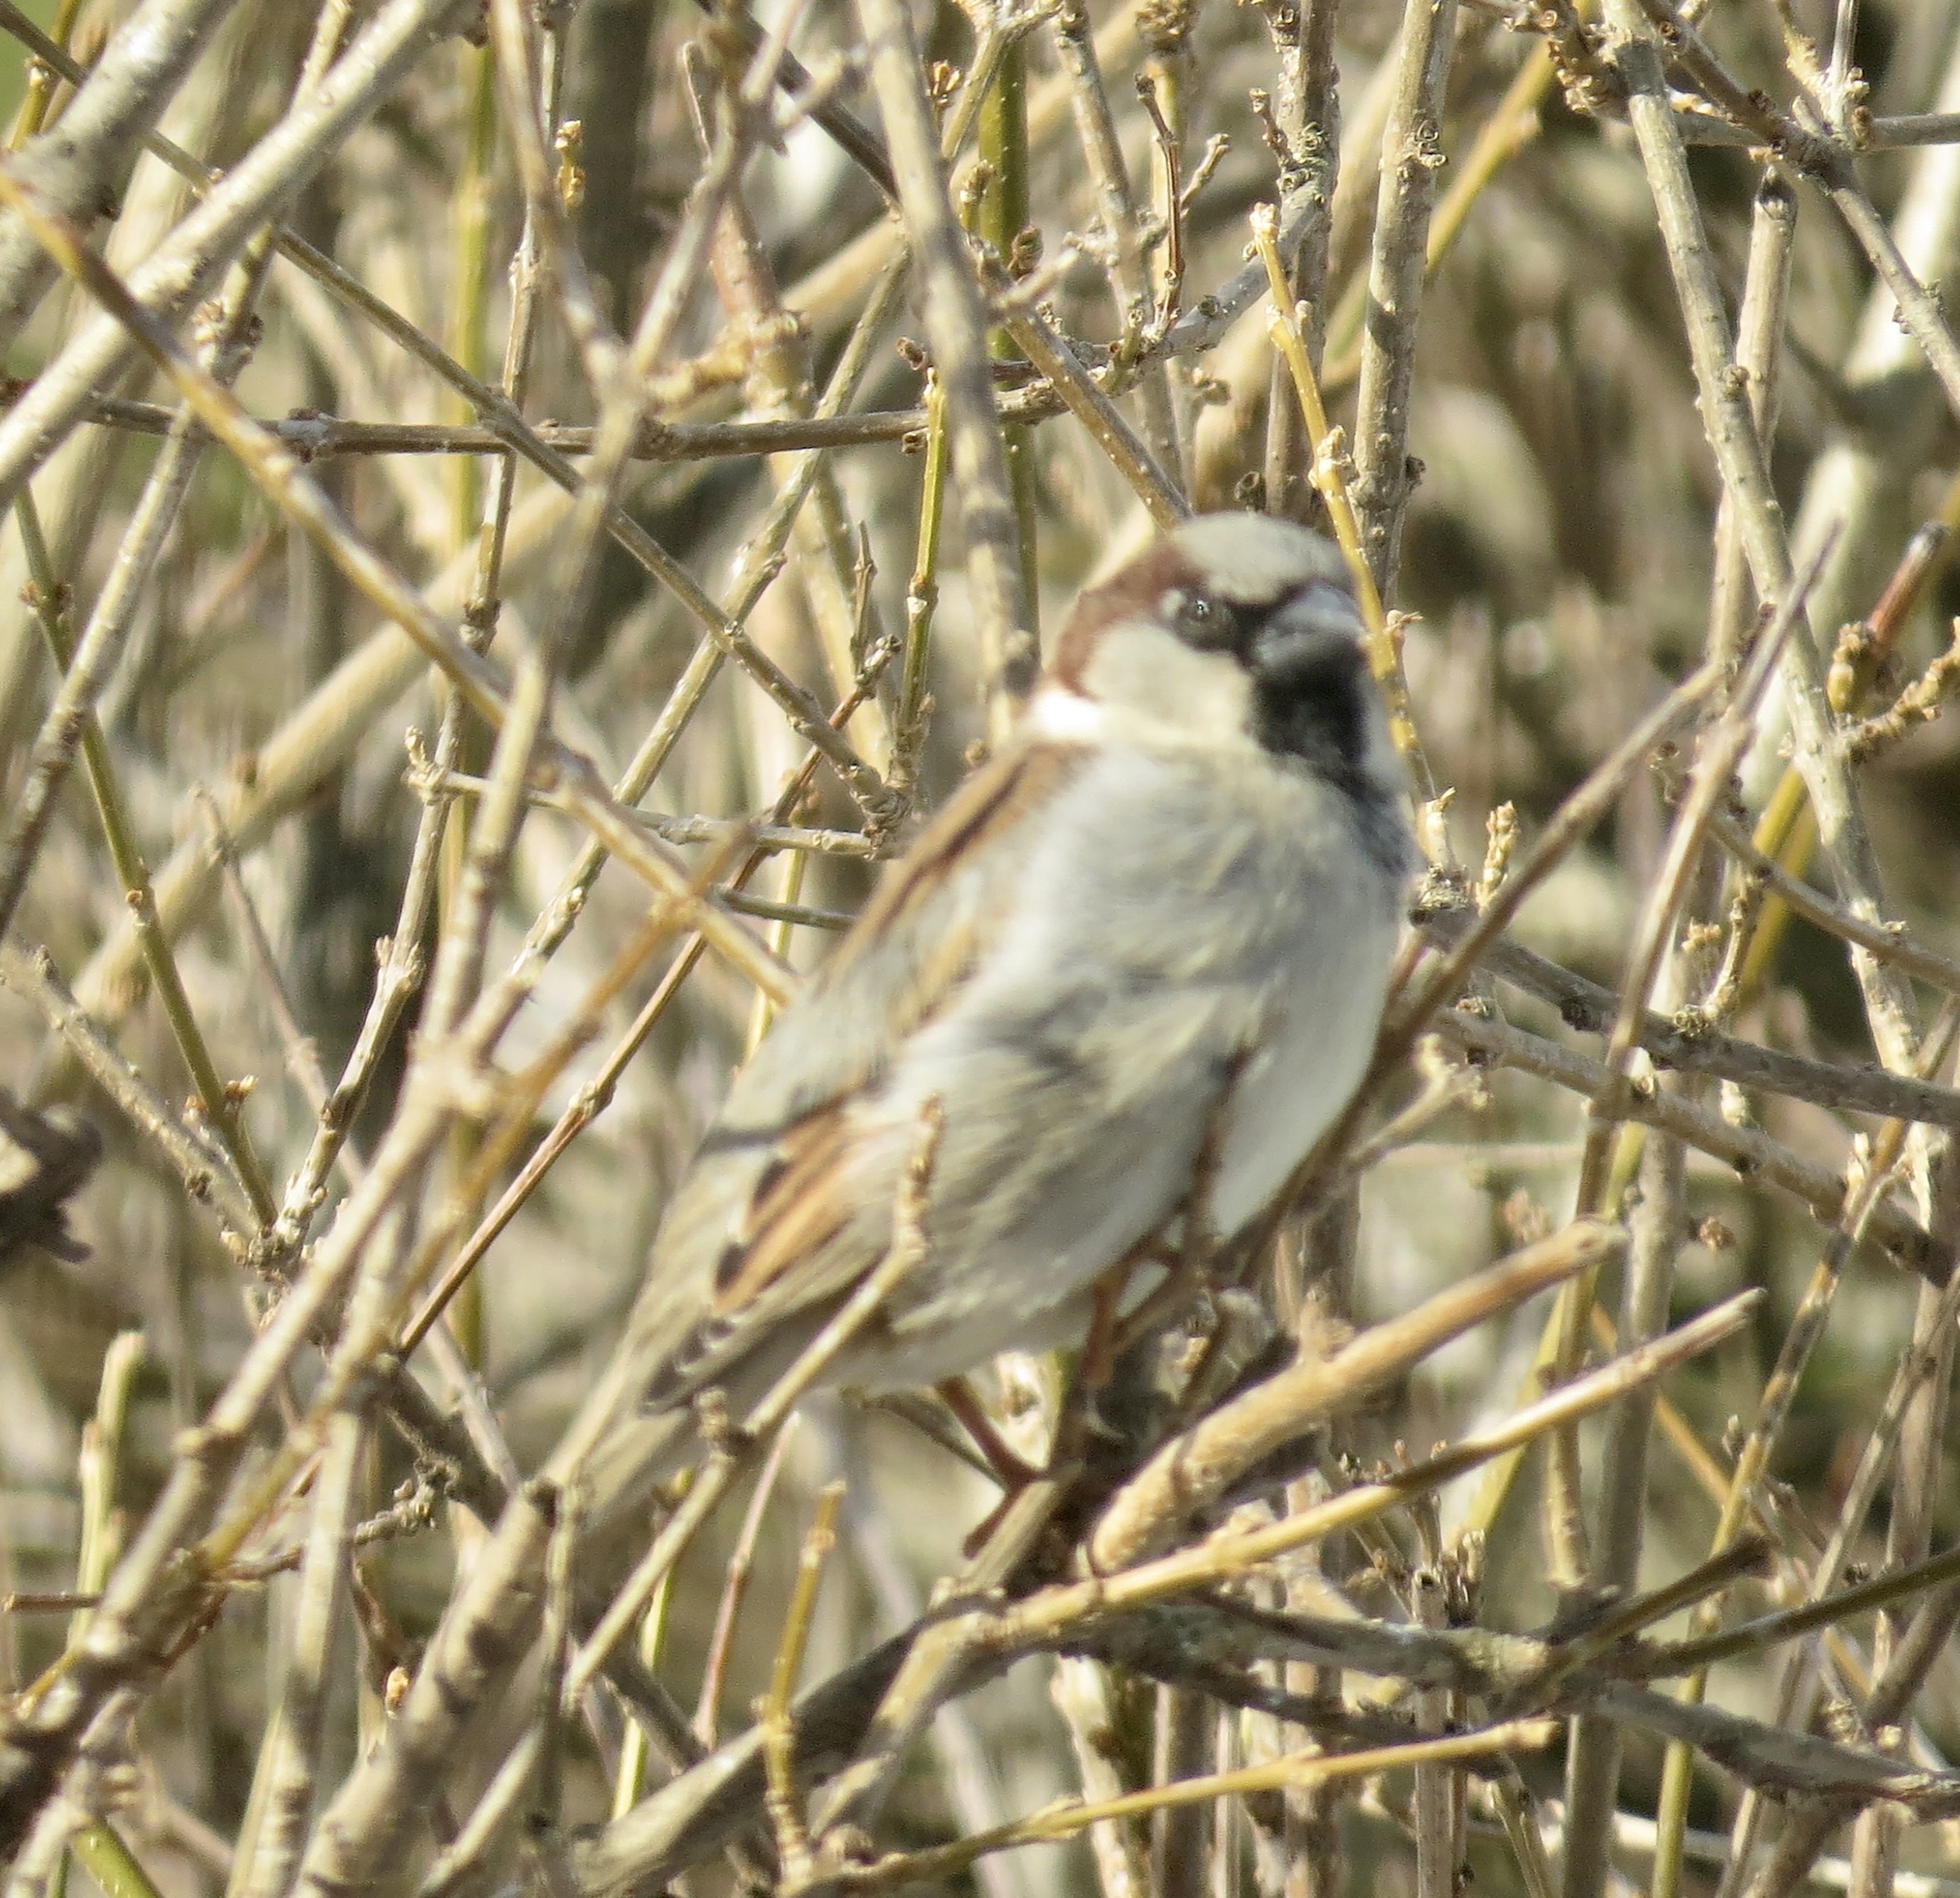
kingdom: Animalia
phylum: Chordata
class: Aves
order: Passeriformes
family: Passeridae
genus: Passer
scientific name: Passer domesticus
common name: House sparrow
